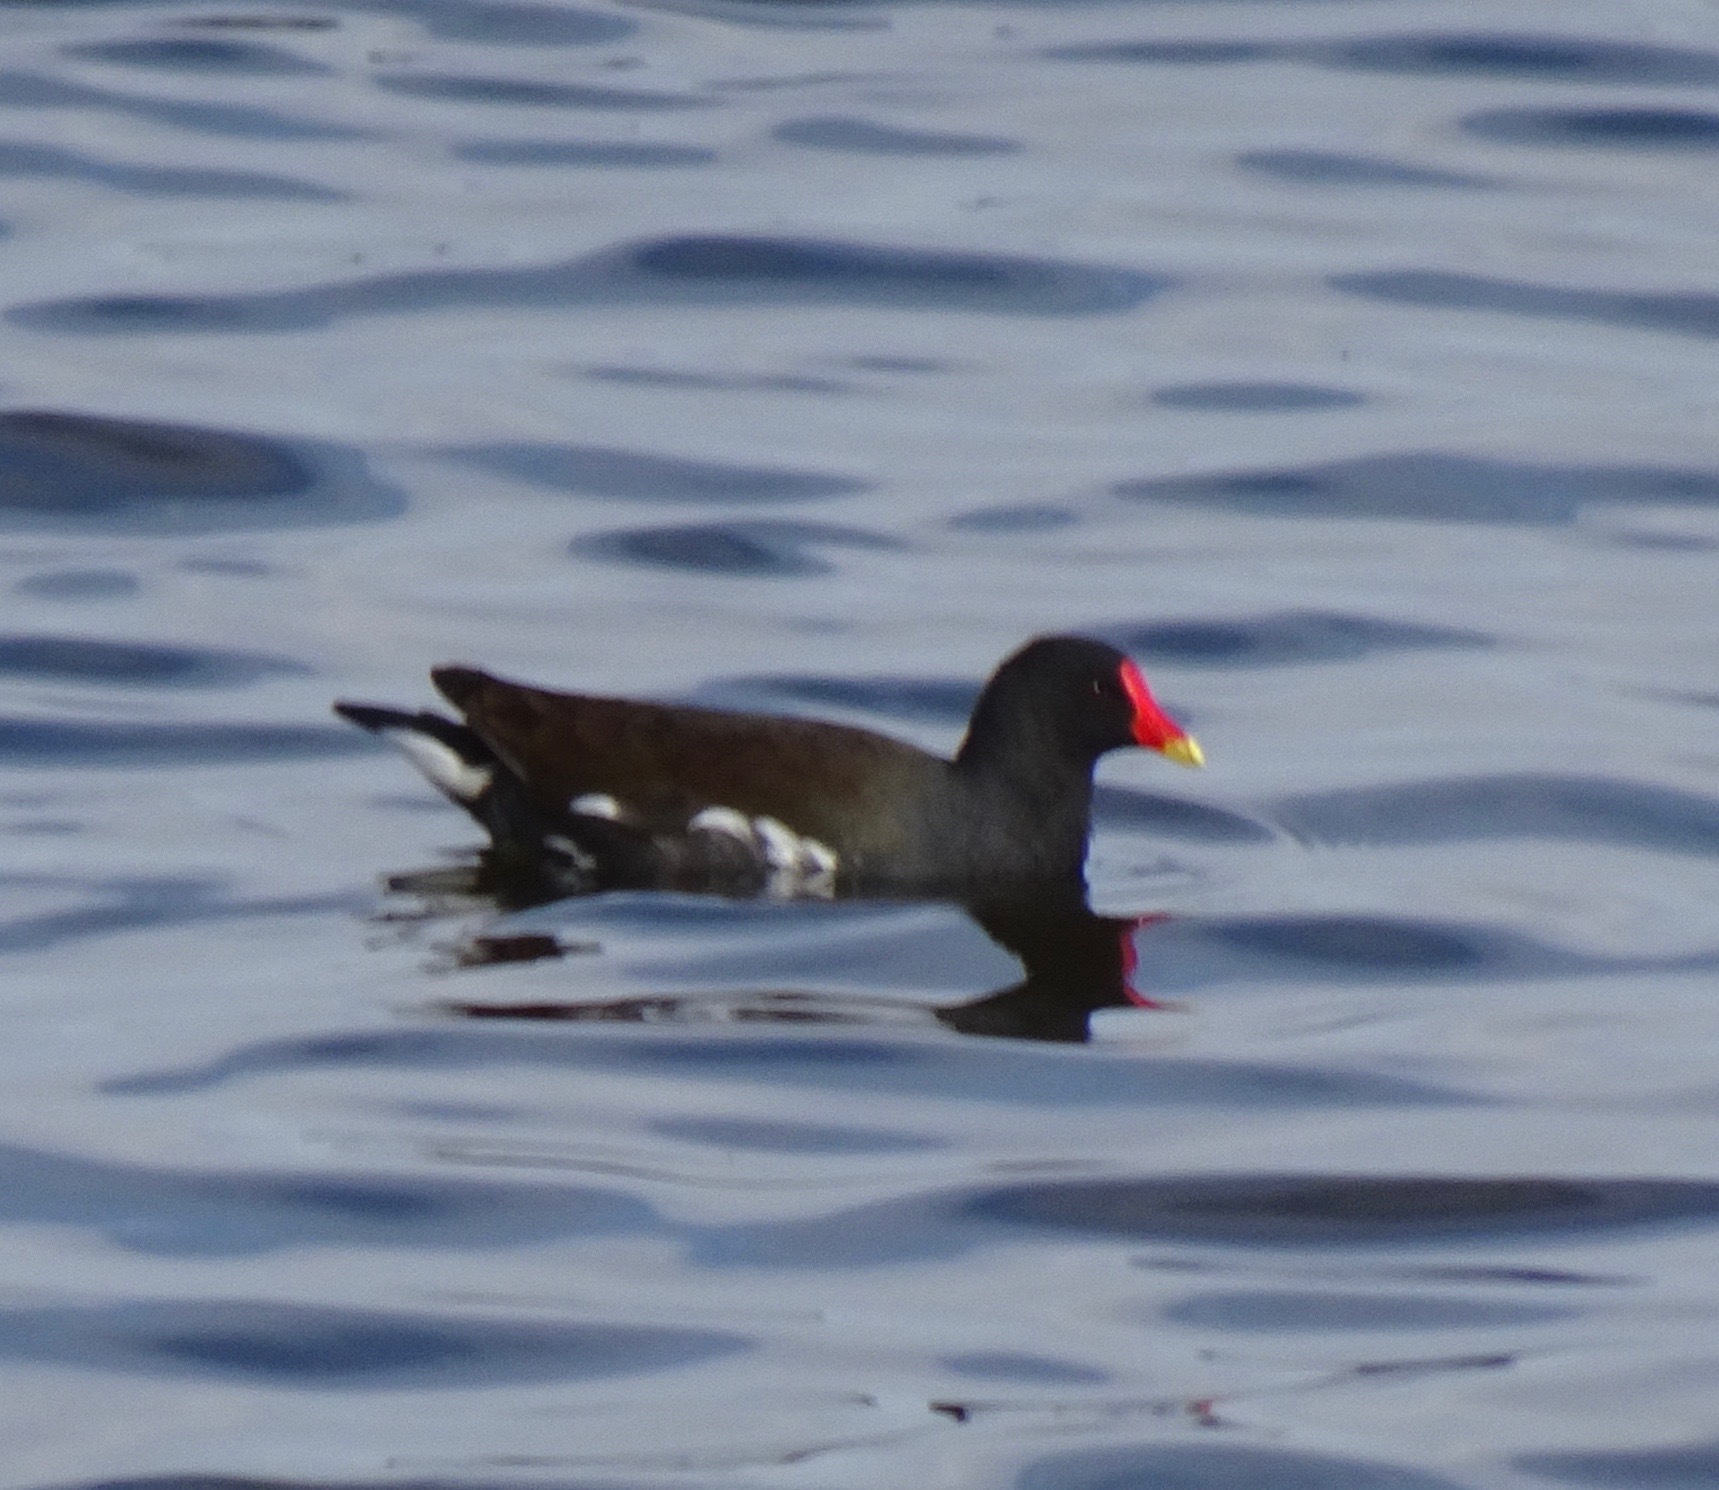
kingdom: Animalia
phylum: Chordata
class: Aves
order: Gruiformes
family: Rallidae
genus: Gallinula
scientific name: Gallinula chloropus
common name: Common moorhen
